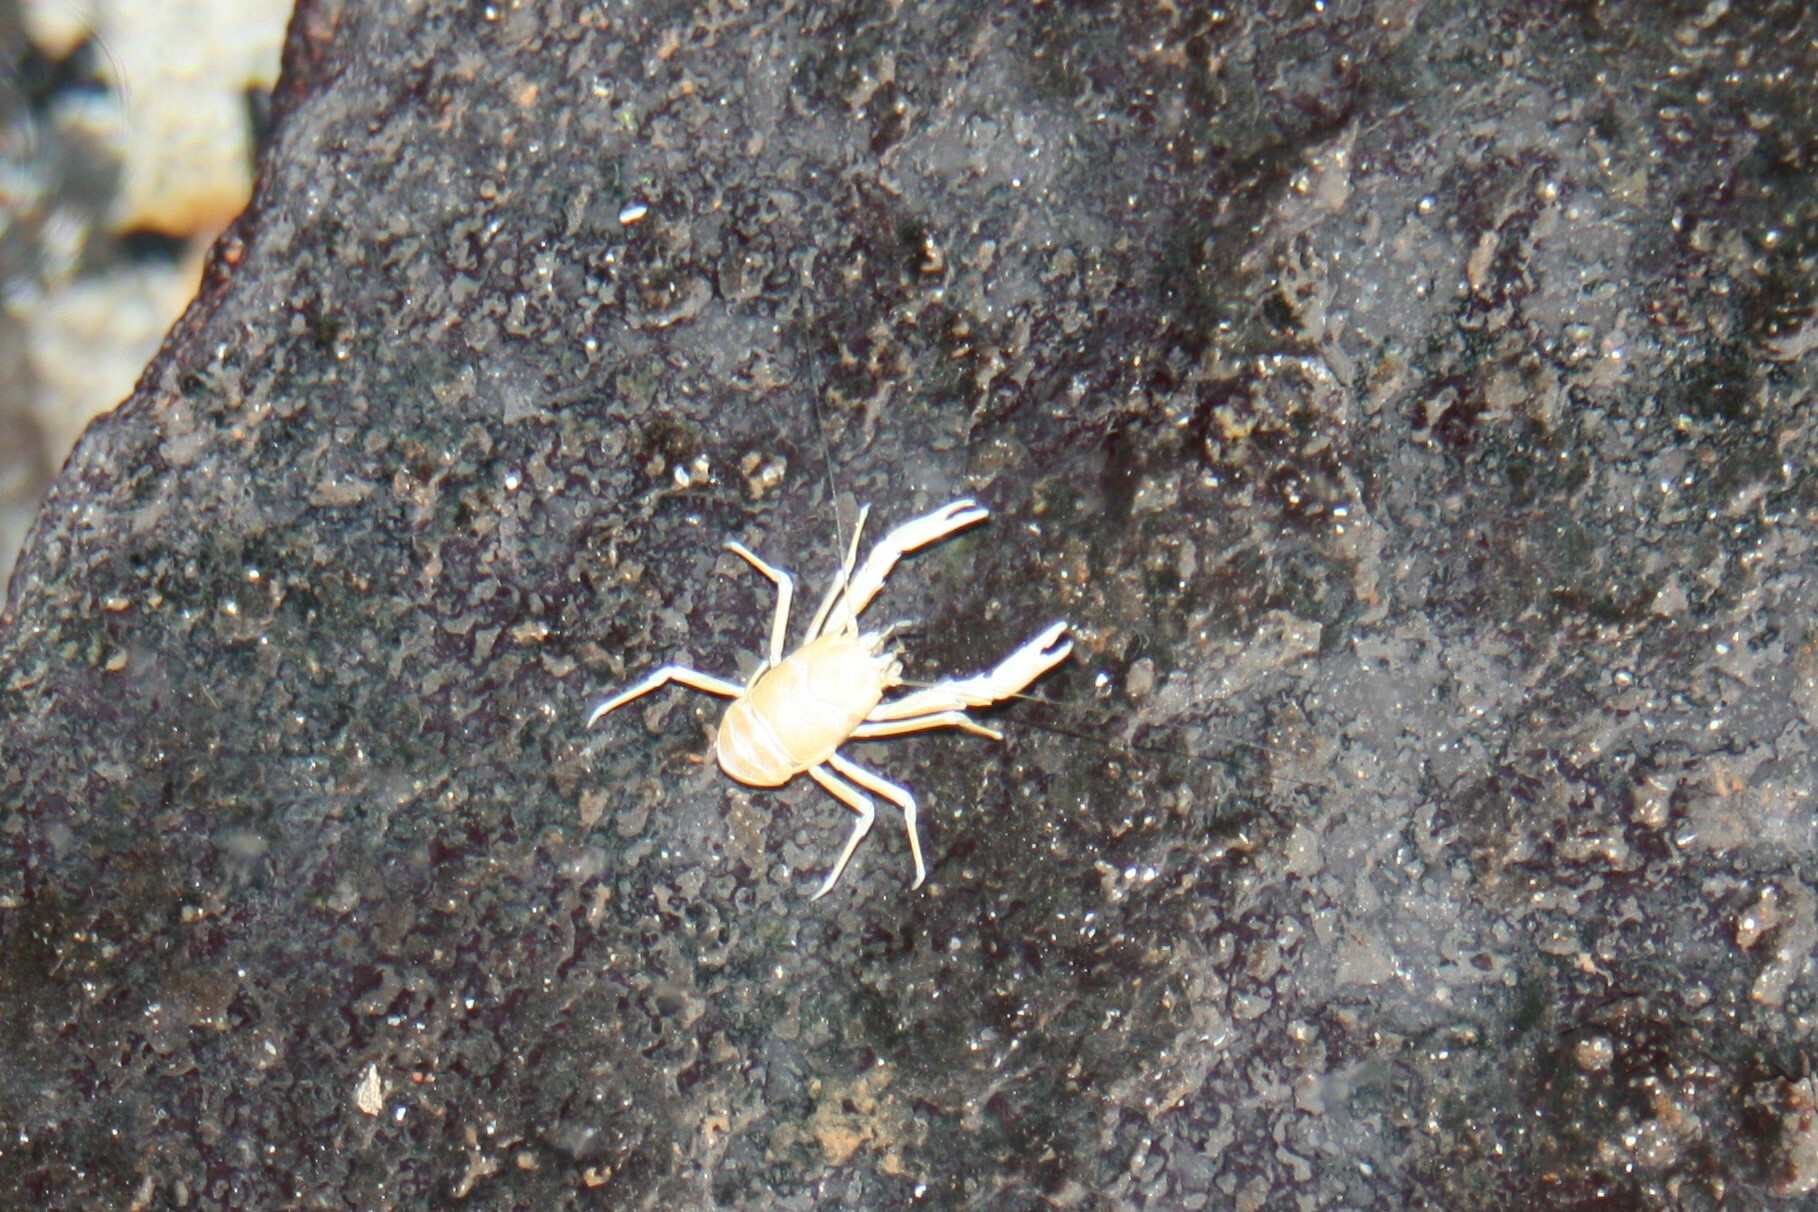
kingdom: Animalia
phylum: Arthropoda
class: Malacostraca
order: Decapoda
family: Munidopsidae
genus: Munidopsis
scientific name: Munidopsis polymorpha
